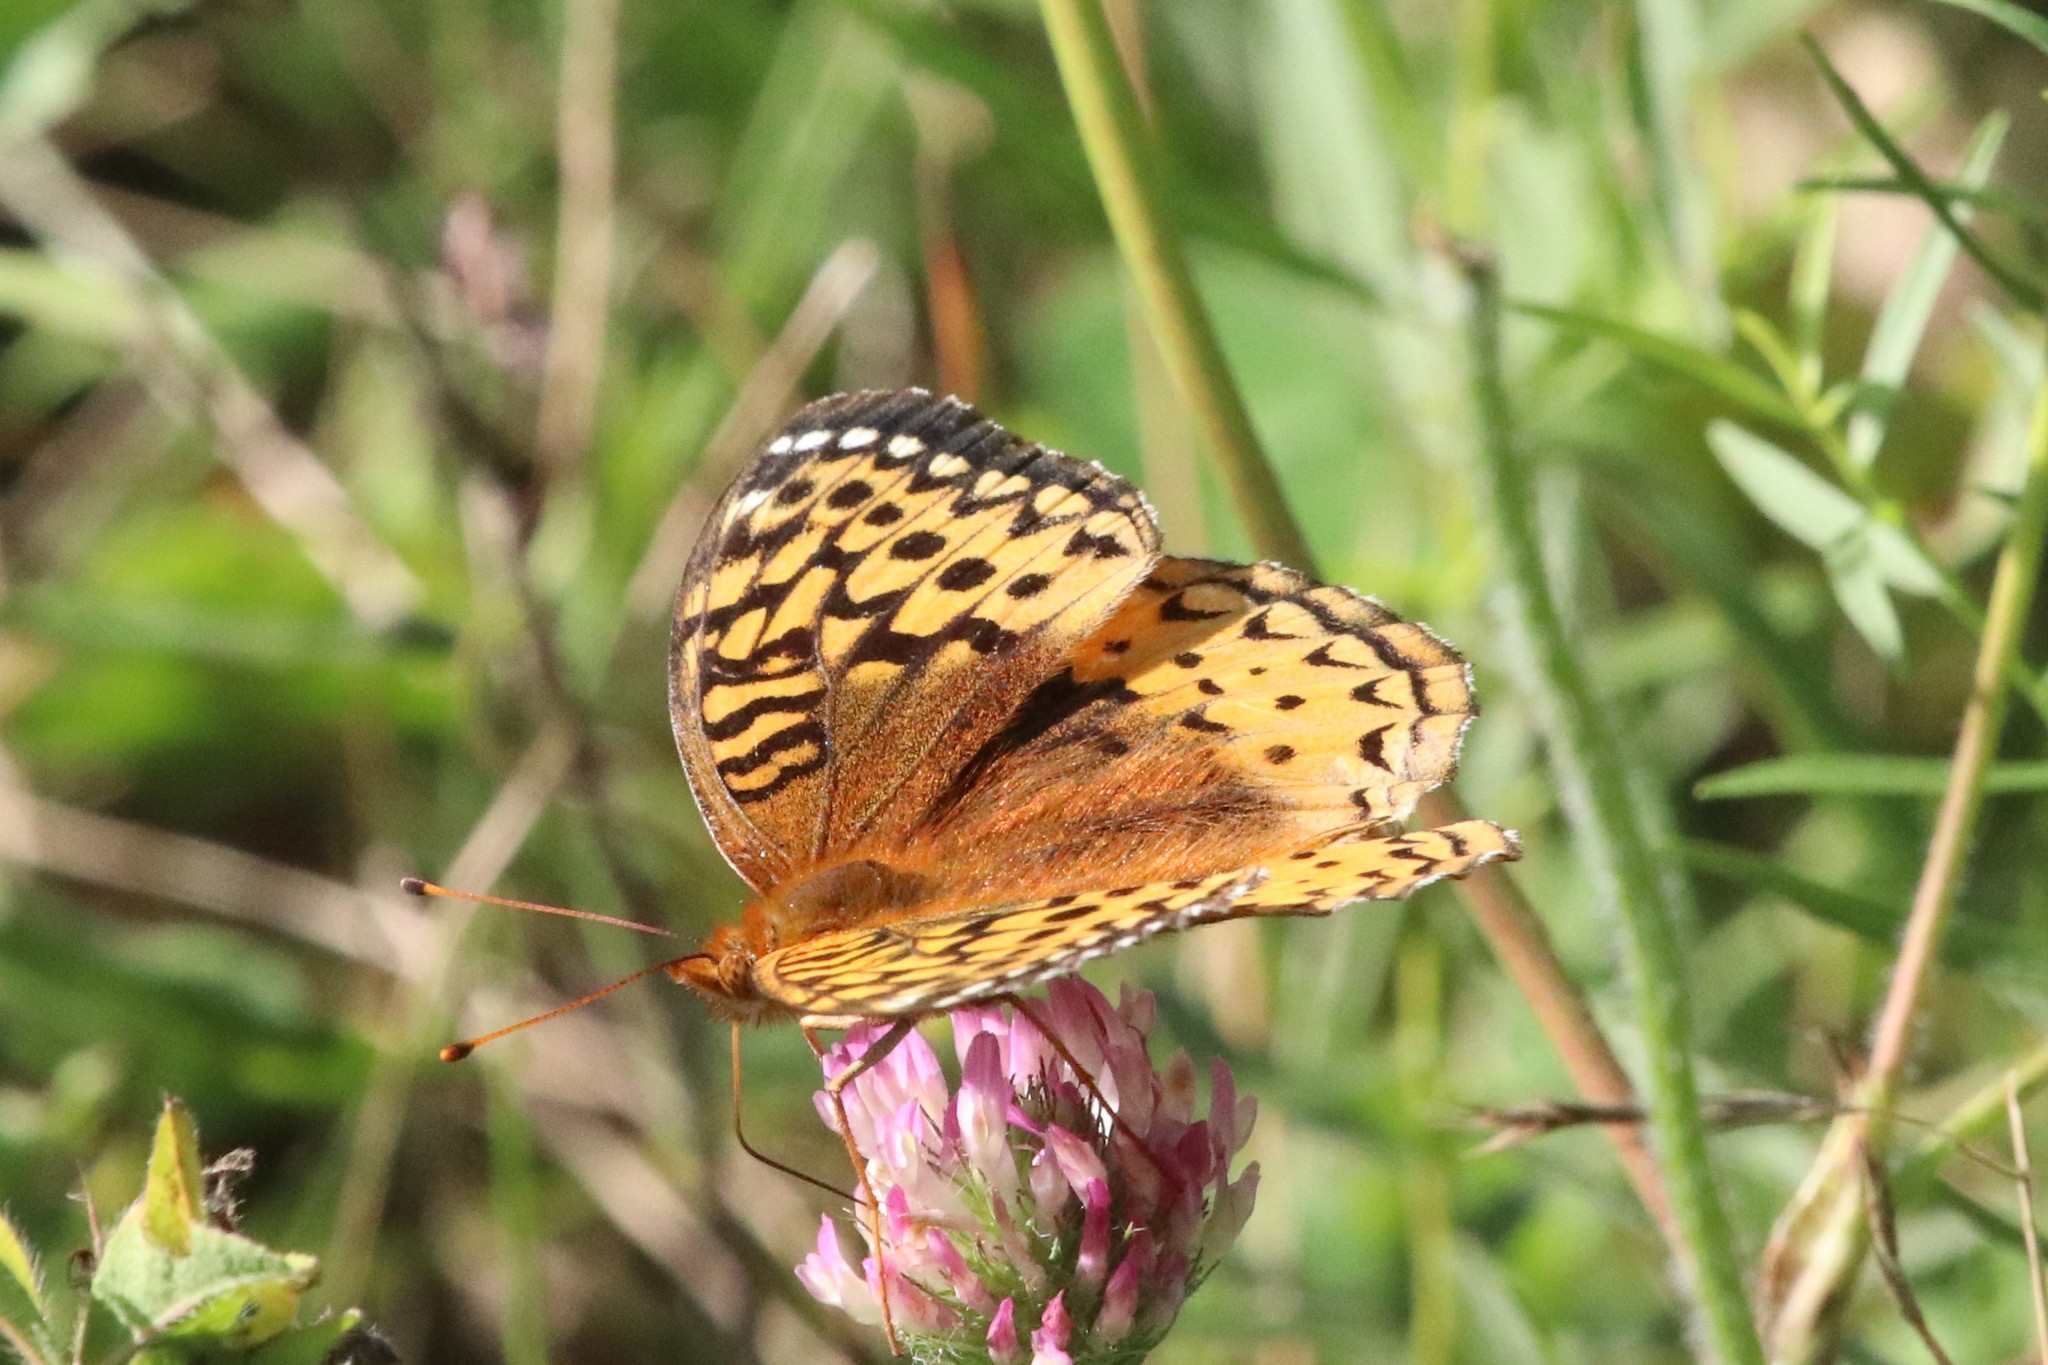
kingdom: Animalia
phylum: Arthropoda
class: Insecta
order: Lepidoptera
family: Nymphalidae
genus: Speyeria
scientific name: Speyeria cybele
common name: Great spangled fritillary
